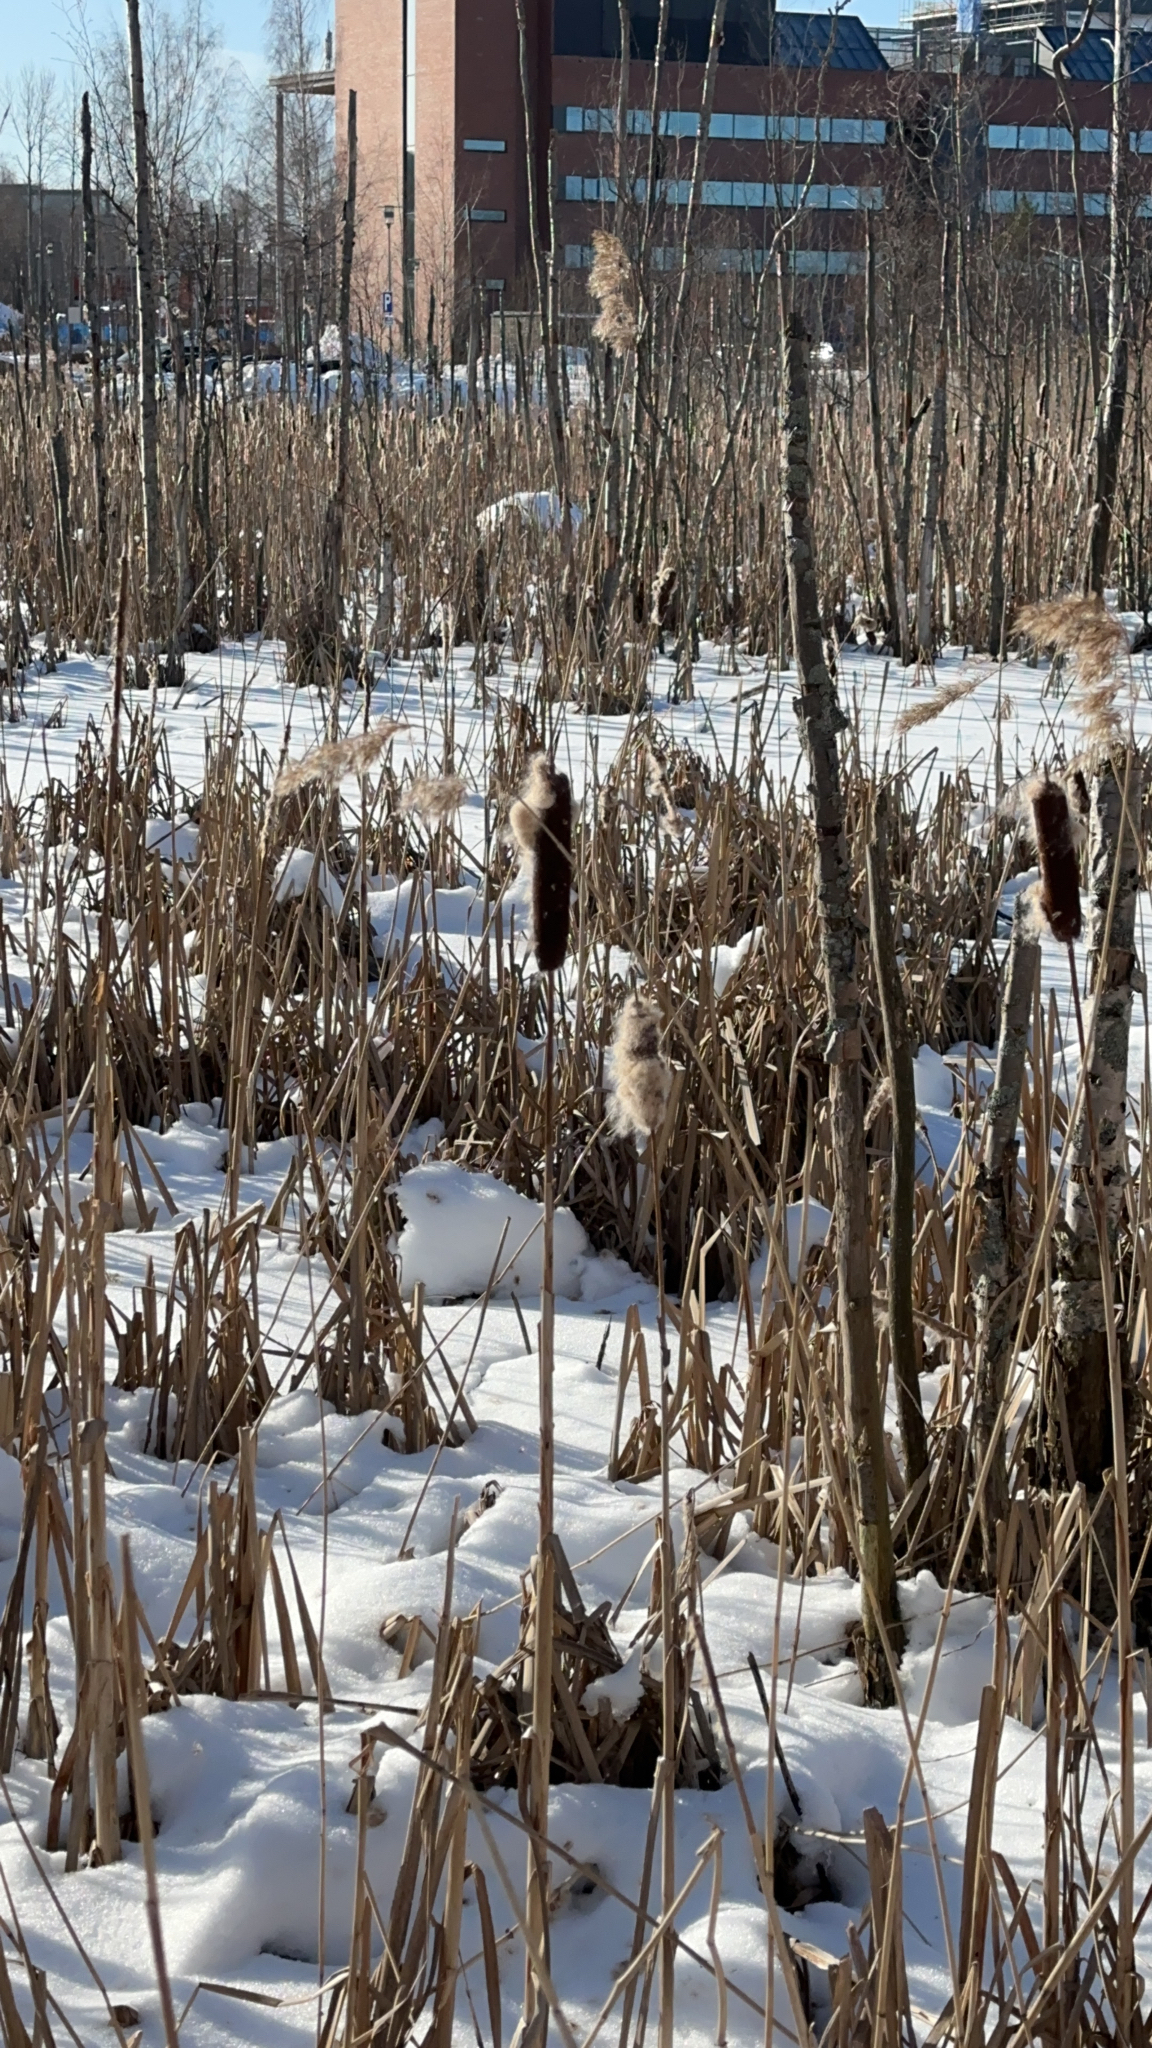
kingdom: Plantae
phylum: Tracheophyta
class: Liliopsida
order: Poales
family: Typhaceae
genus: Typha
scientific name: Typha latifolia
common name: Broadleaf cattail
